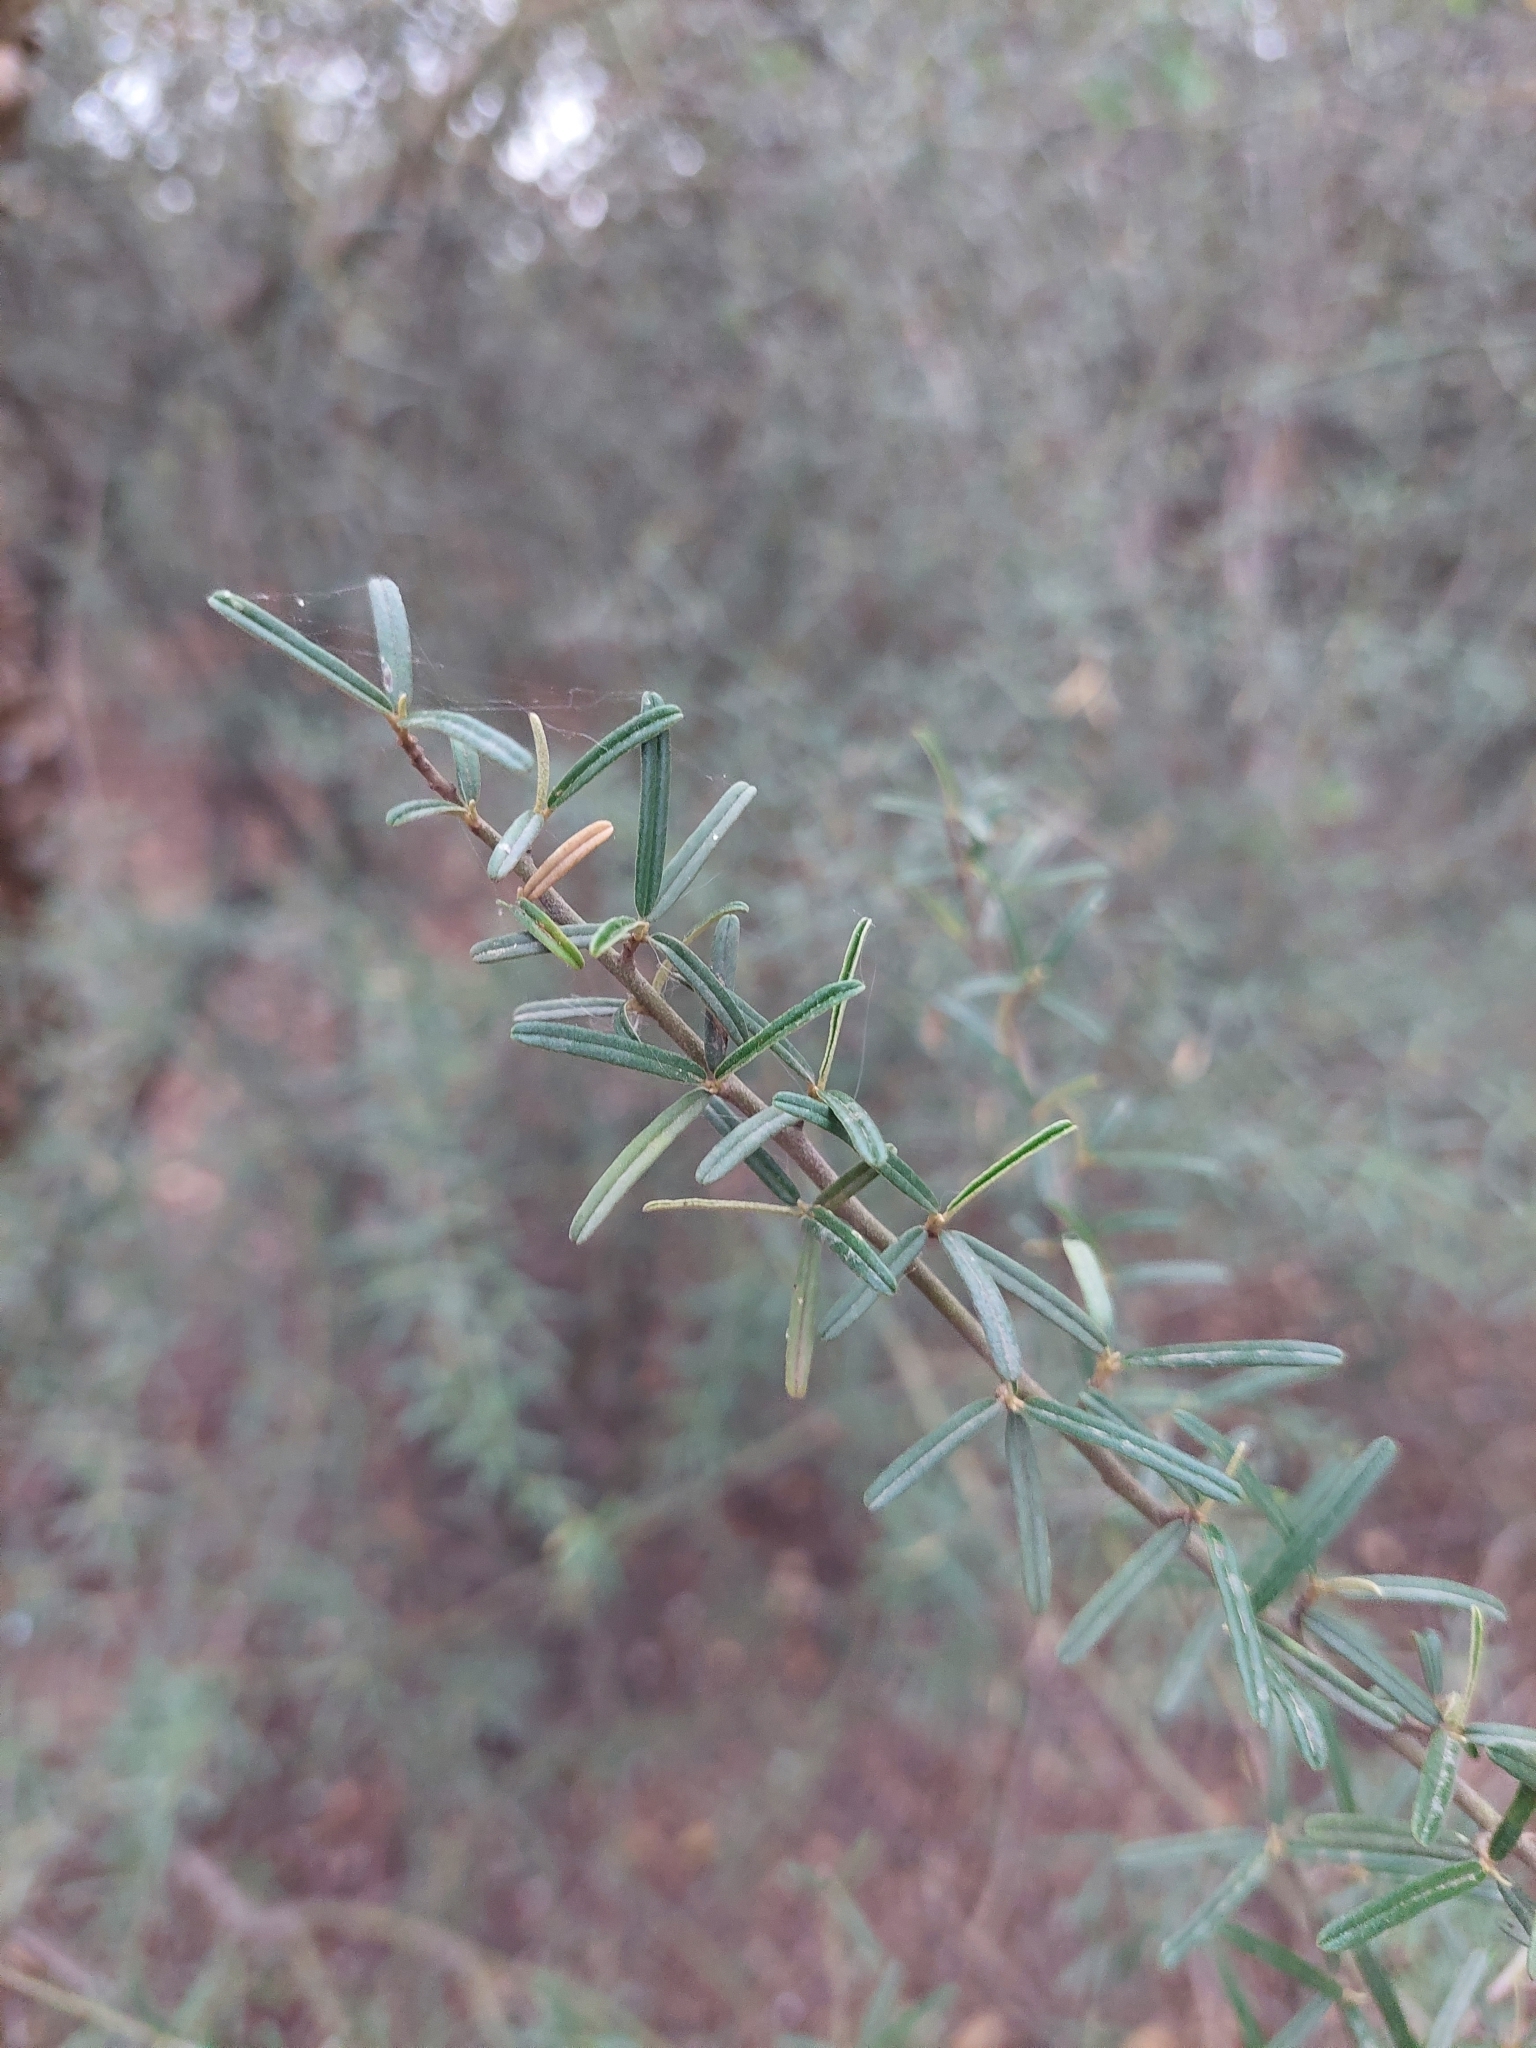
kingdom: Plantae
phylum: Tracheophyta
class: Magnoliopsida
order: Brassicales
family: Capparaceae
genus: Atamisquea
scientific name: Atamisquea emarginata
